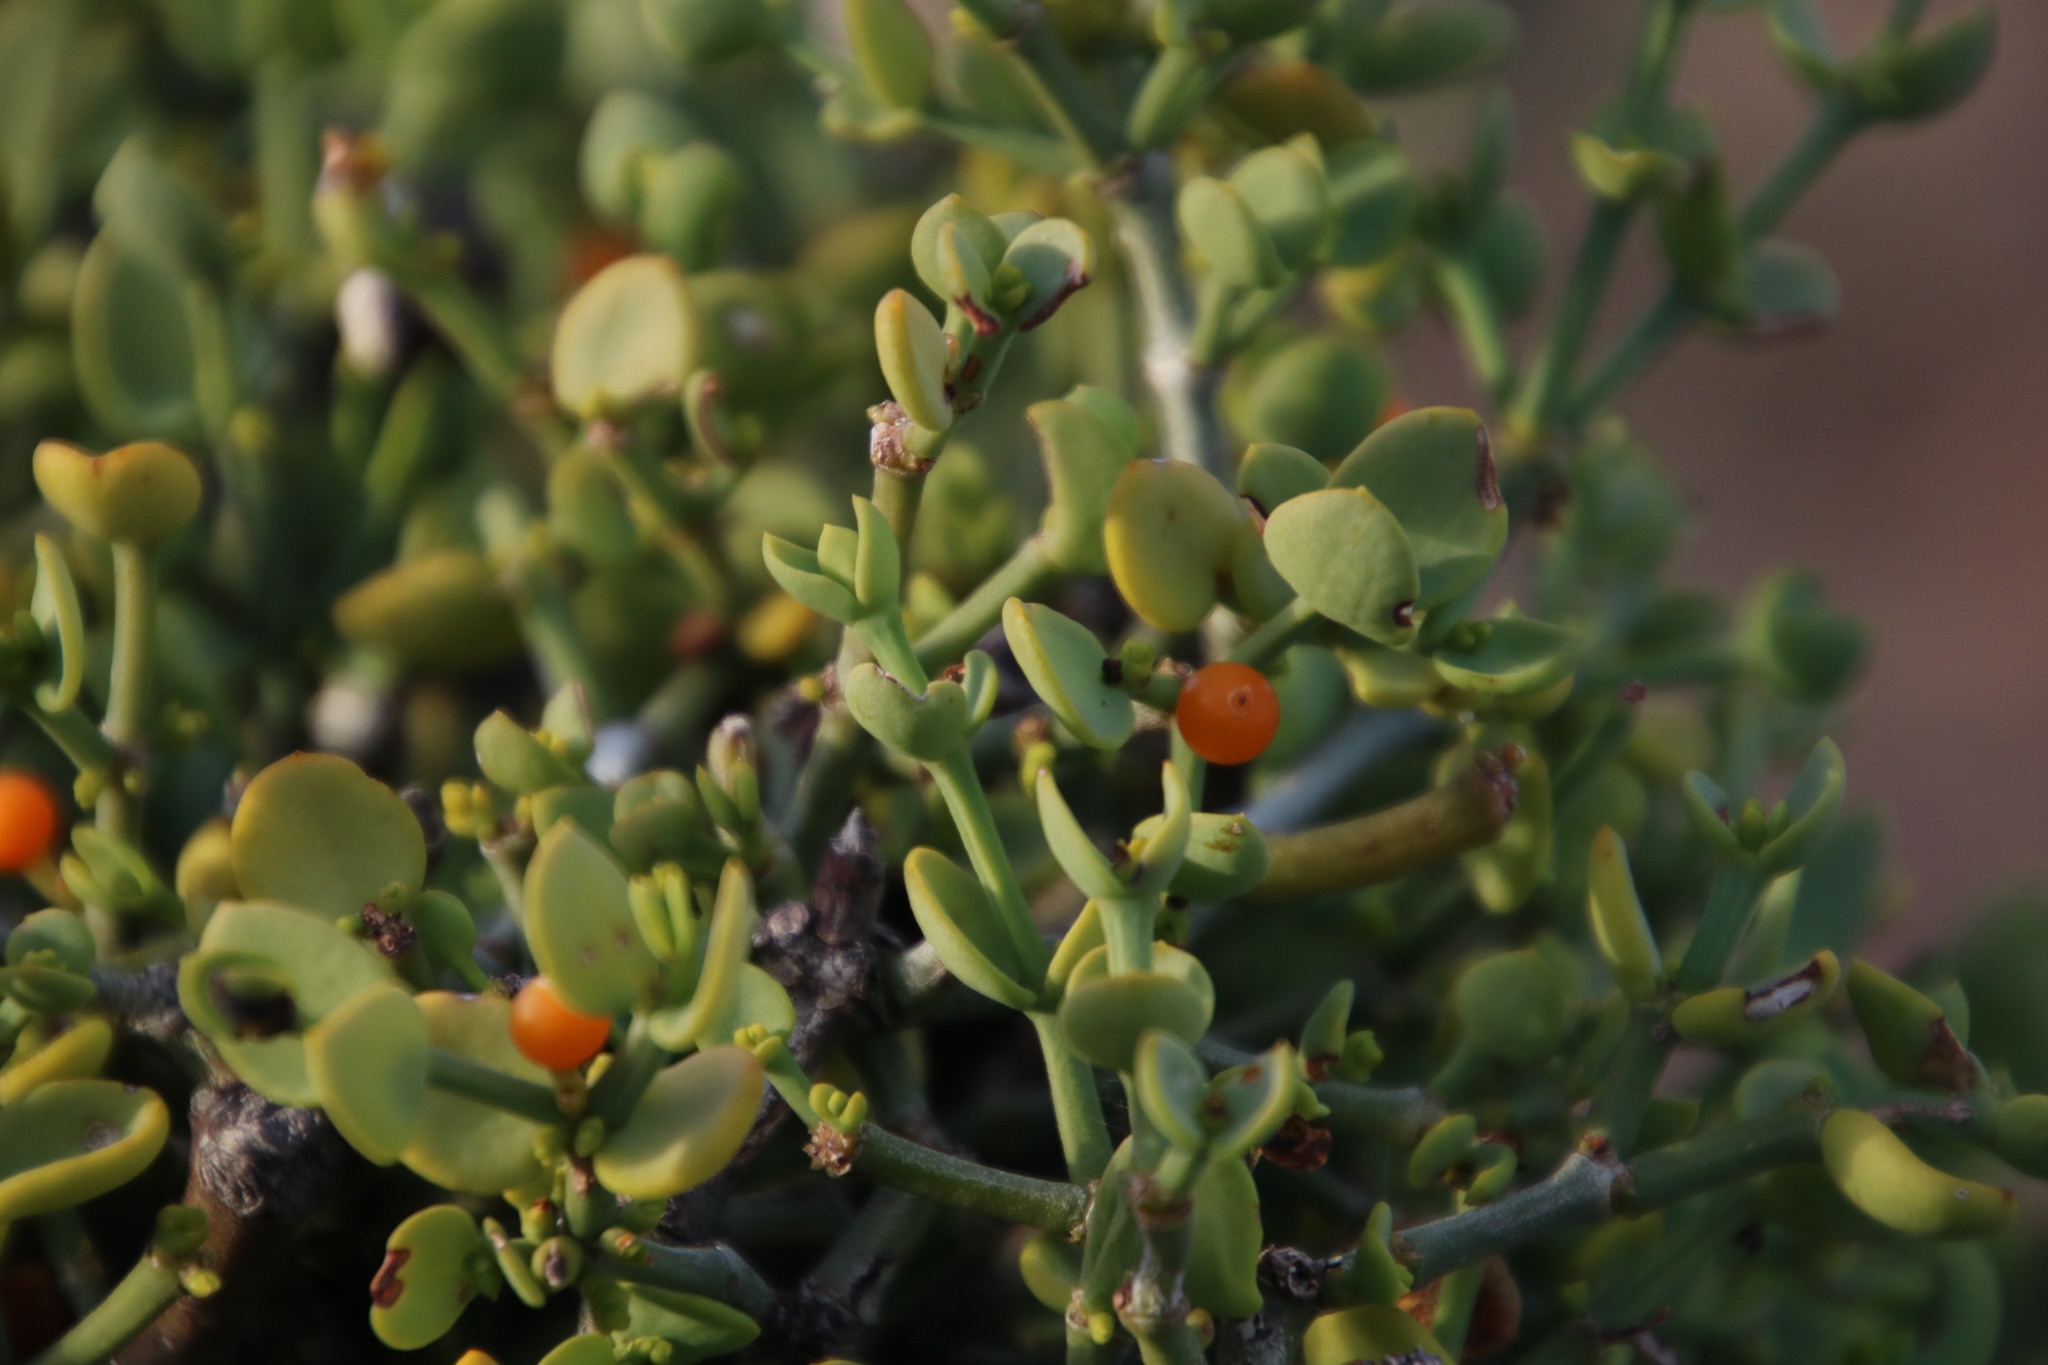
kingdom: Plantae
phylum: Tracheophyta
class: Magnoliopsida
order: Santalales
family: Viscaceae
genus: Viscum
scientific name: Viscum rotundifolium
